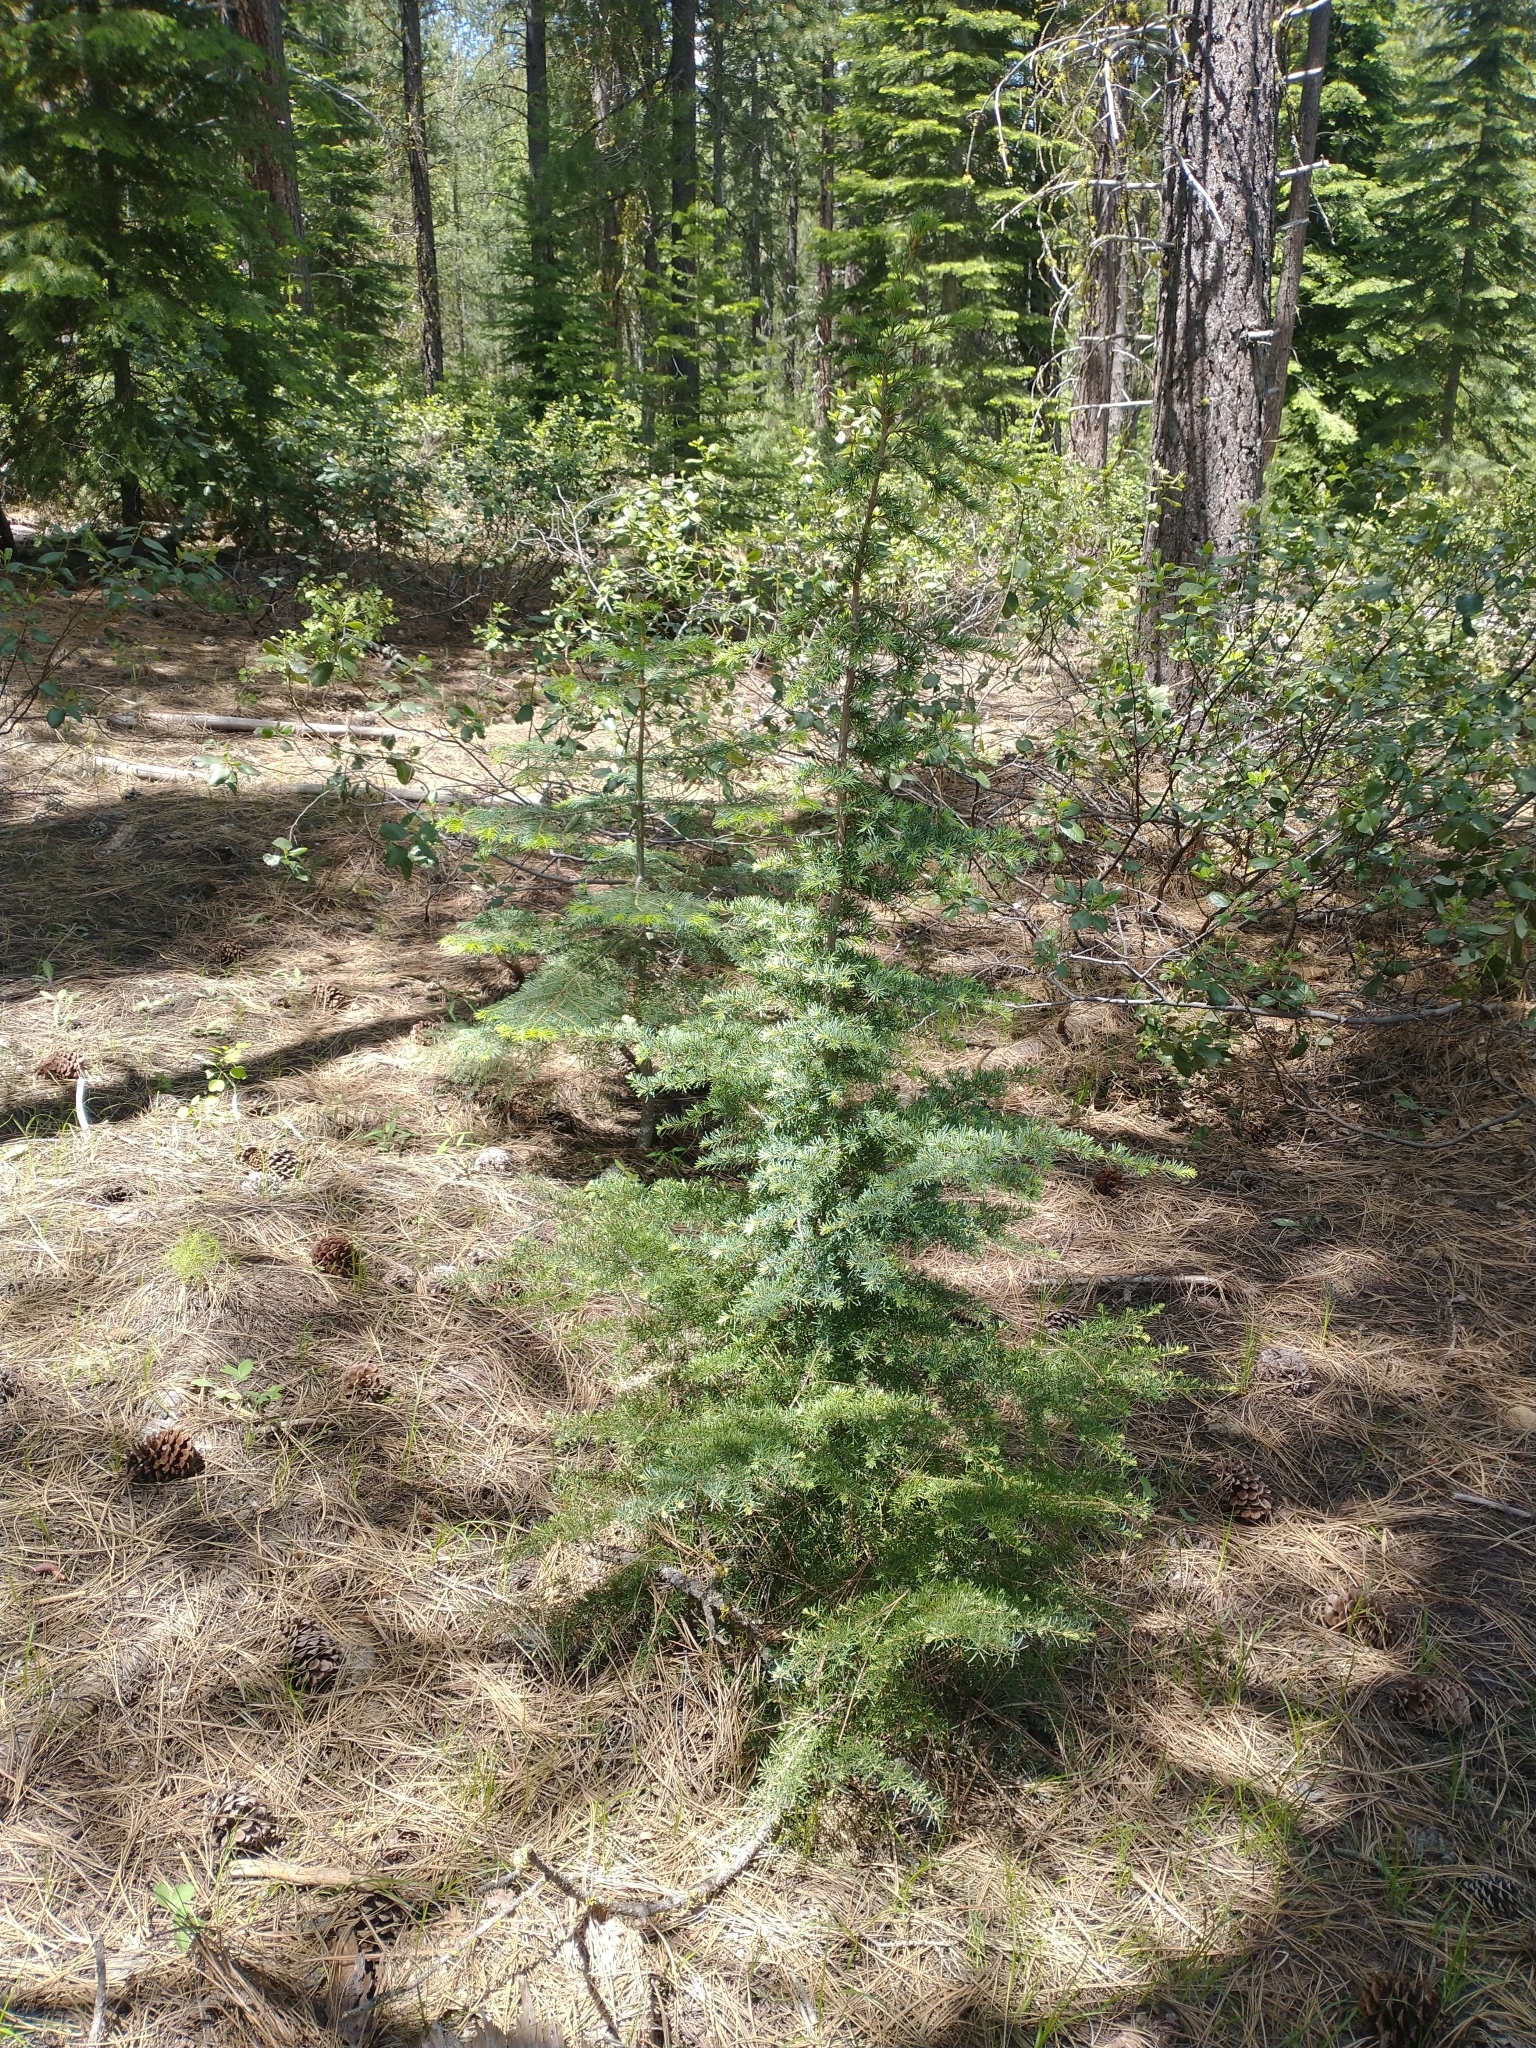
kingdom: Plantae
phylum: Tracheophyta
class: Pinopsida
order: Pinales
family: Pinaceae
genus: Tsuga
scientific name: Tsuga mertensiana
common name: Mountain hemlock
